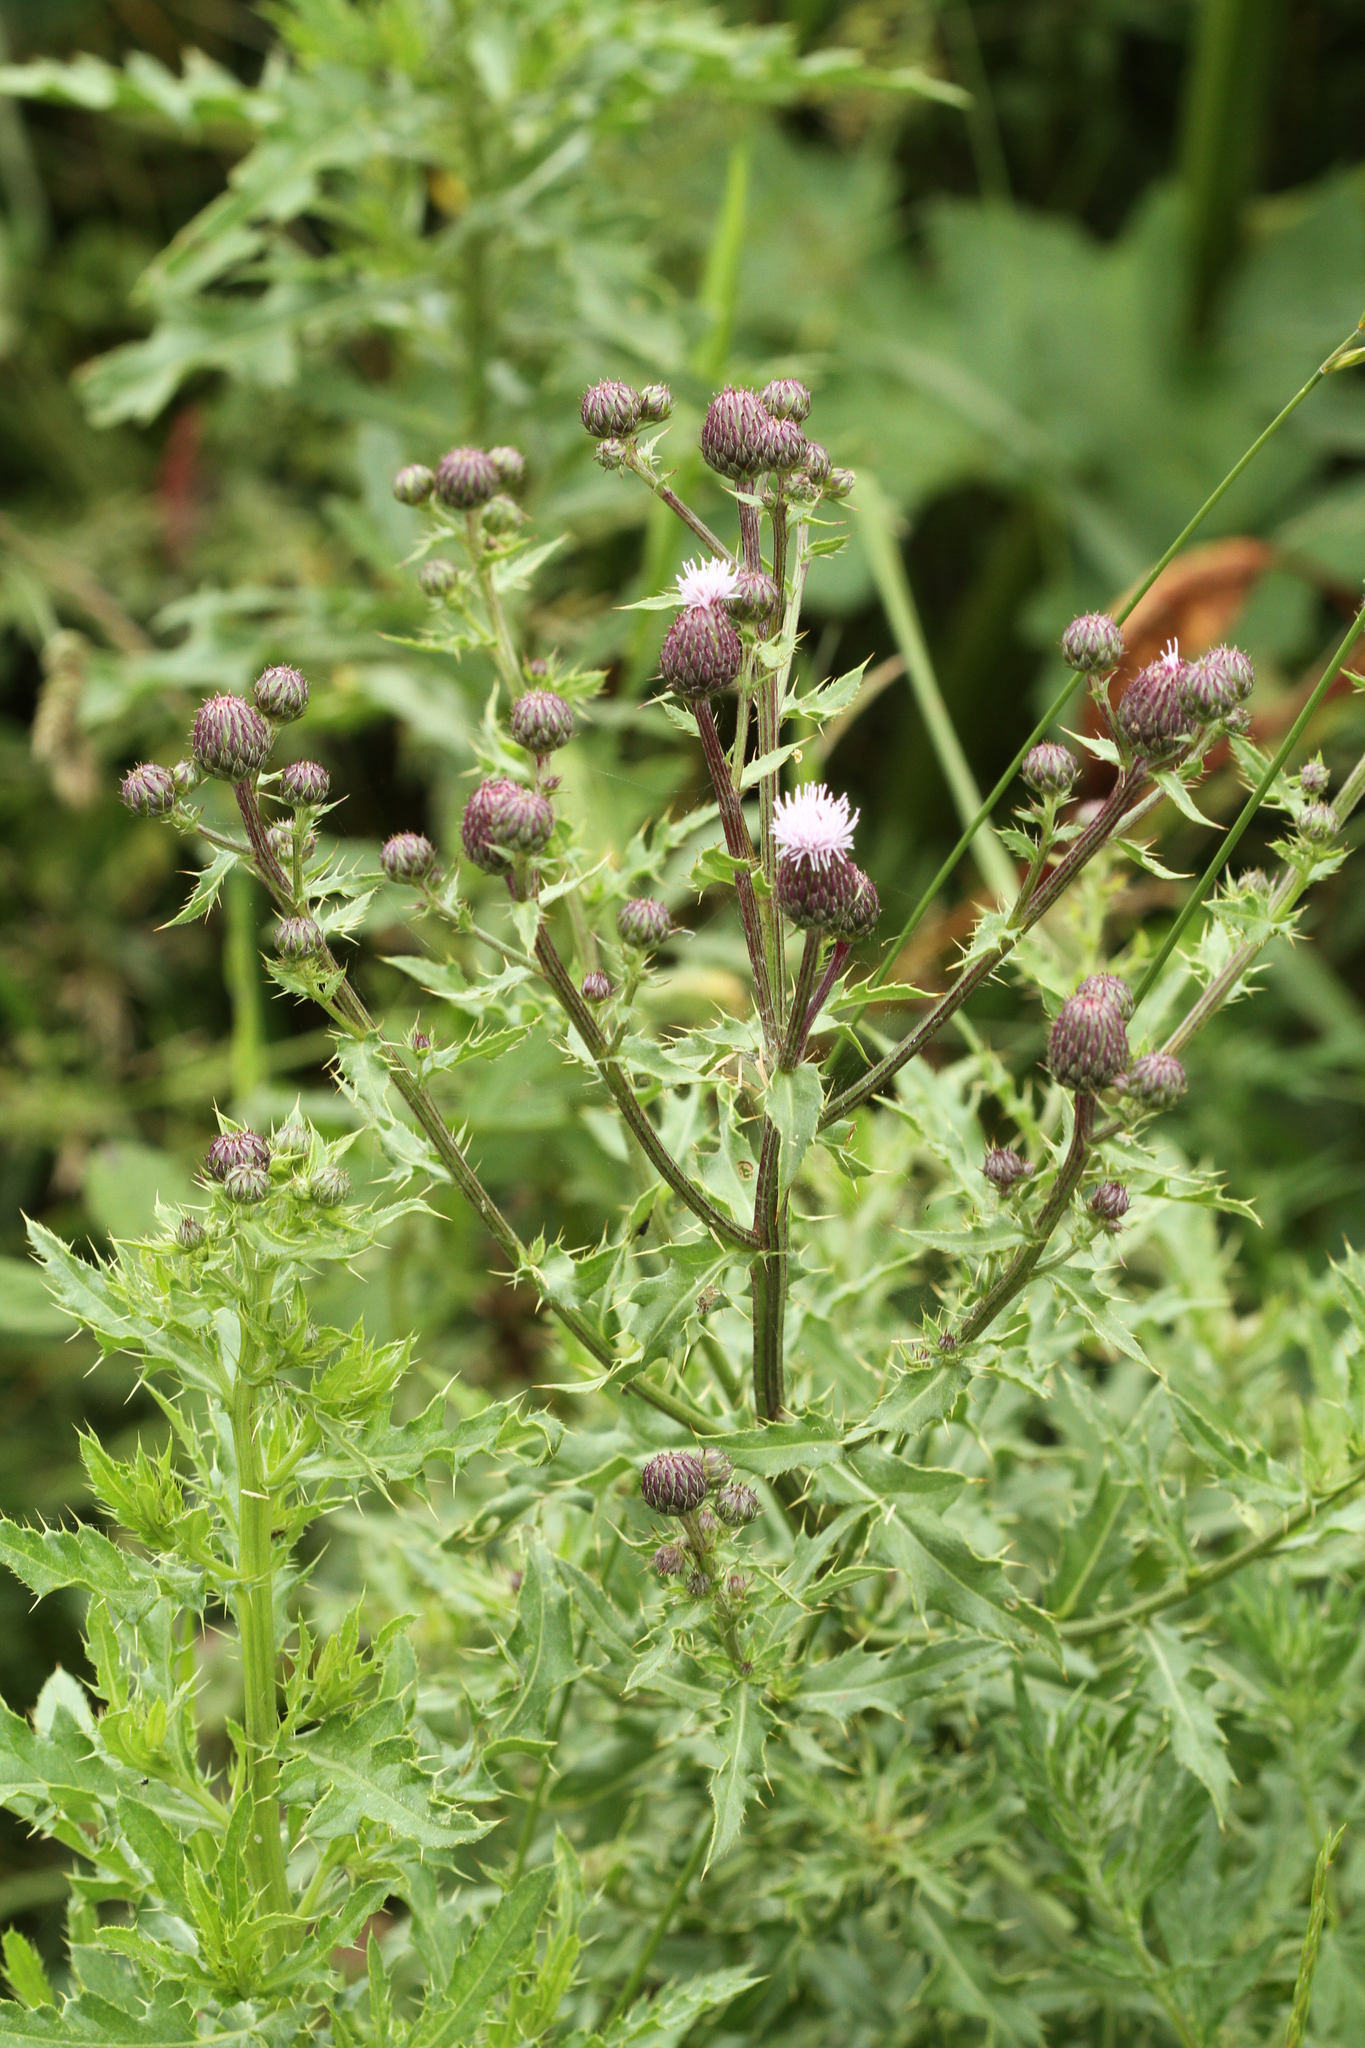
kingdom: Plantae
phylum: Tracheophyta
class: Magnoliopsida
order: Asterales
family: Asteraceae
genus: Cirsium
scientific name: Cirsium arvense
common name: Creeping thistle
